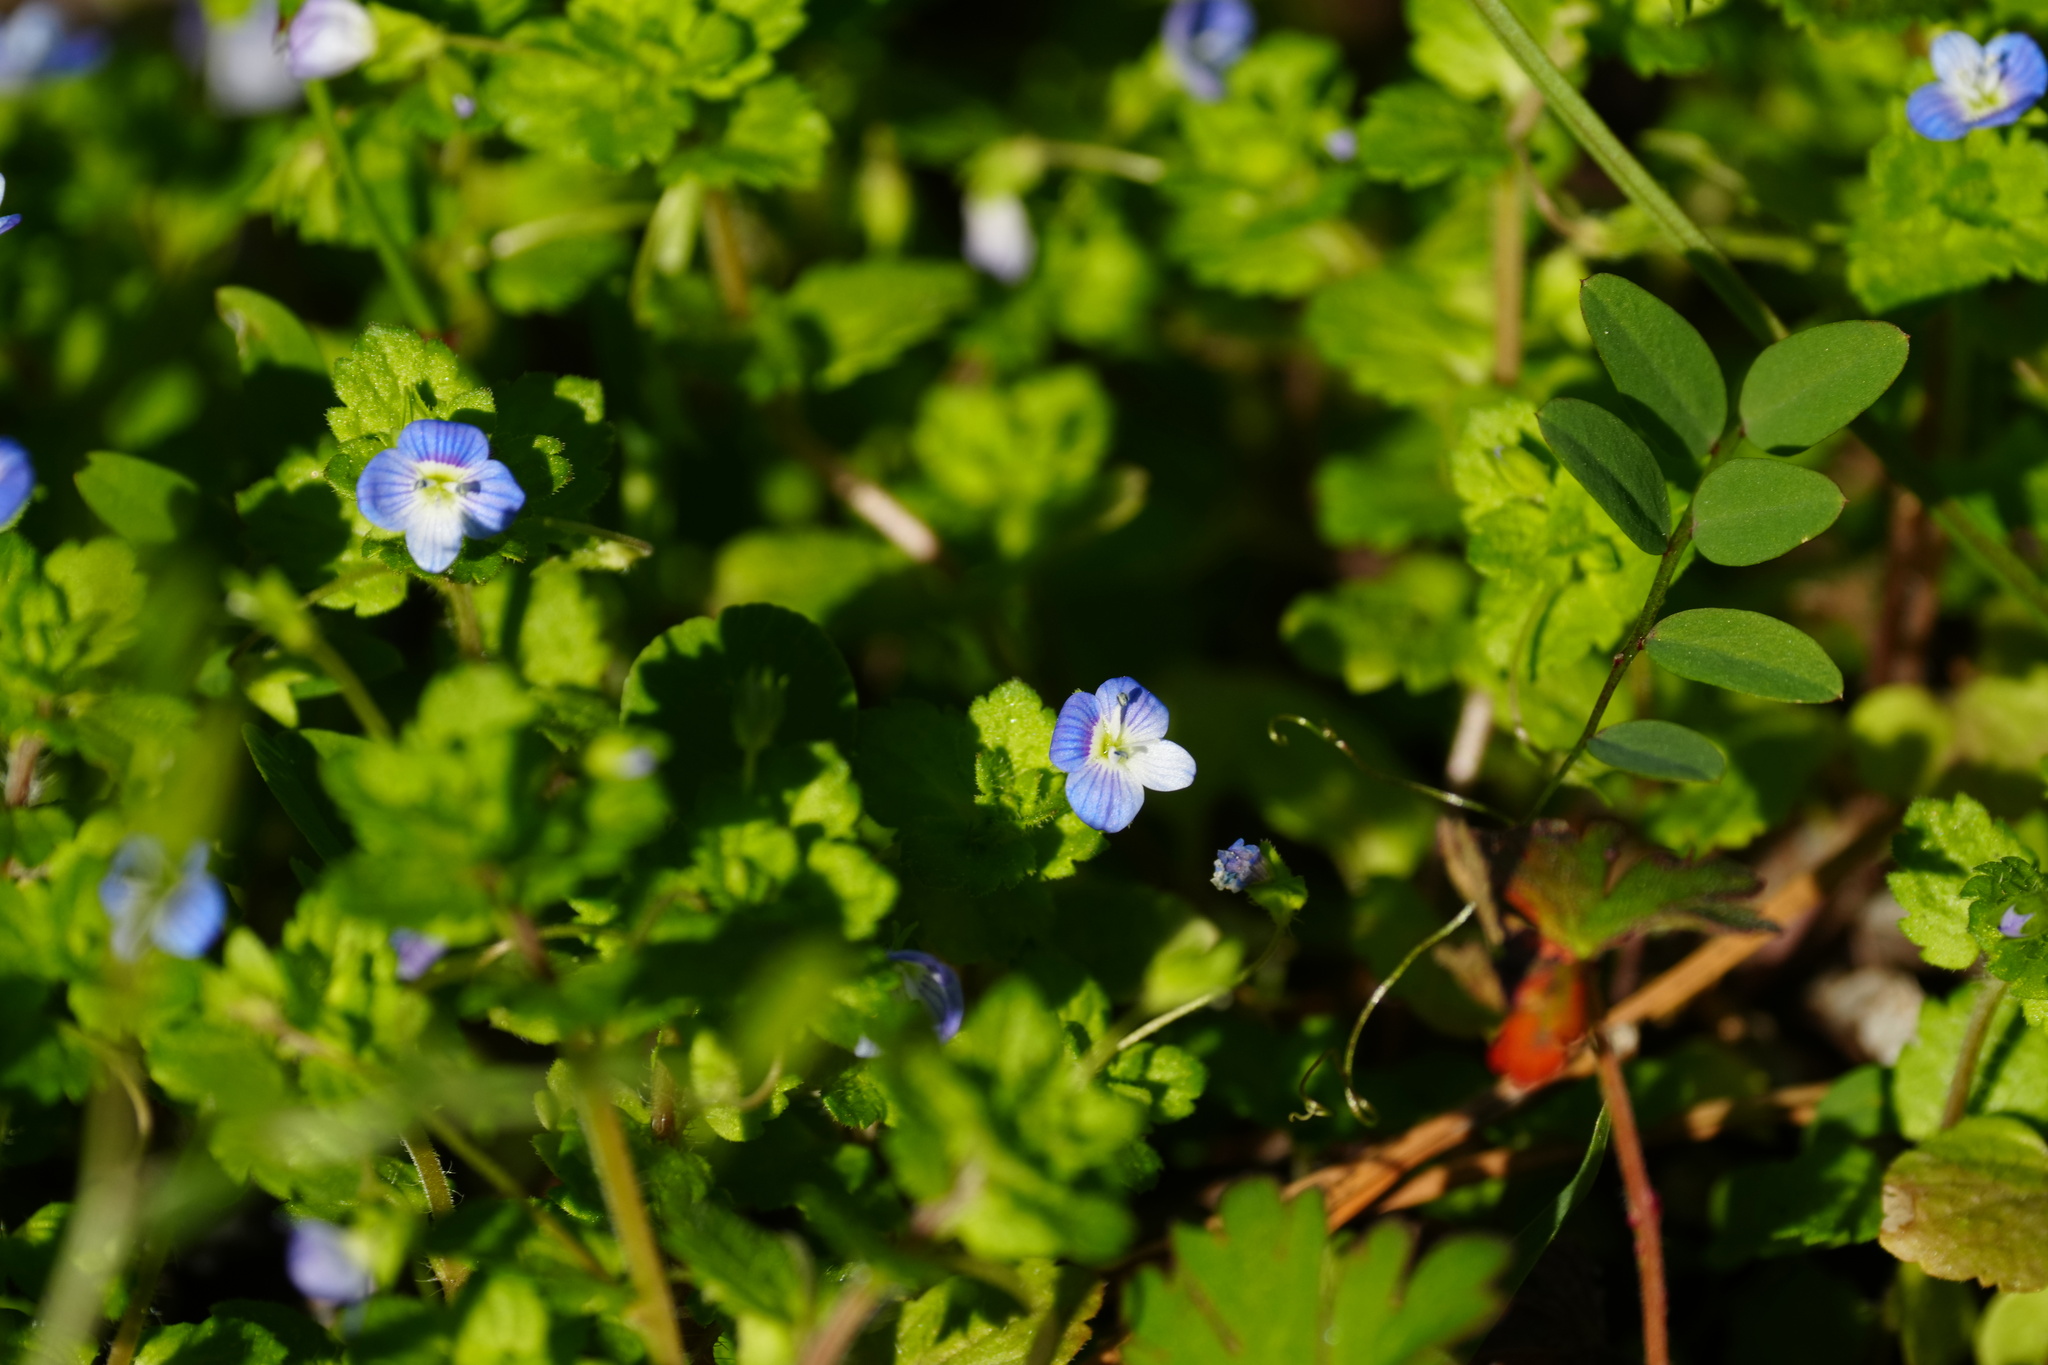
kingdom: Plantae
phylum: Tracheophyta
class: Magnoliopsida
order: Lamiales
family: Plantaginaceae
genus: Veronica
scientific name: Veronica persica
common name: Common field-speedwell
